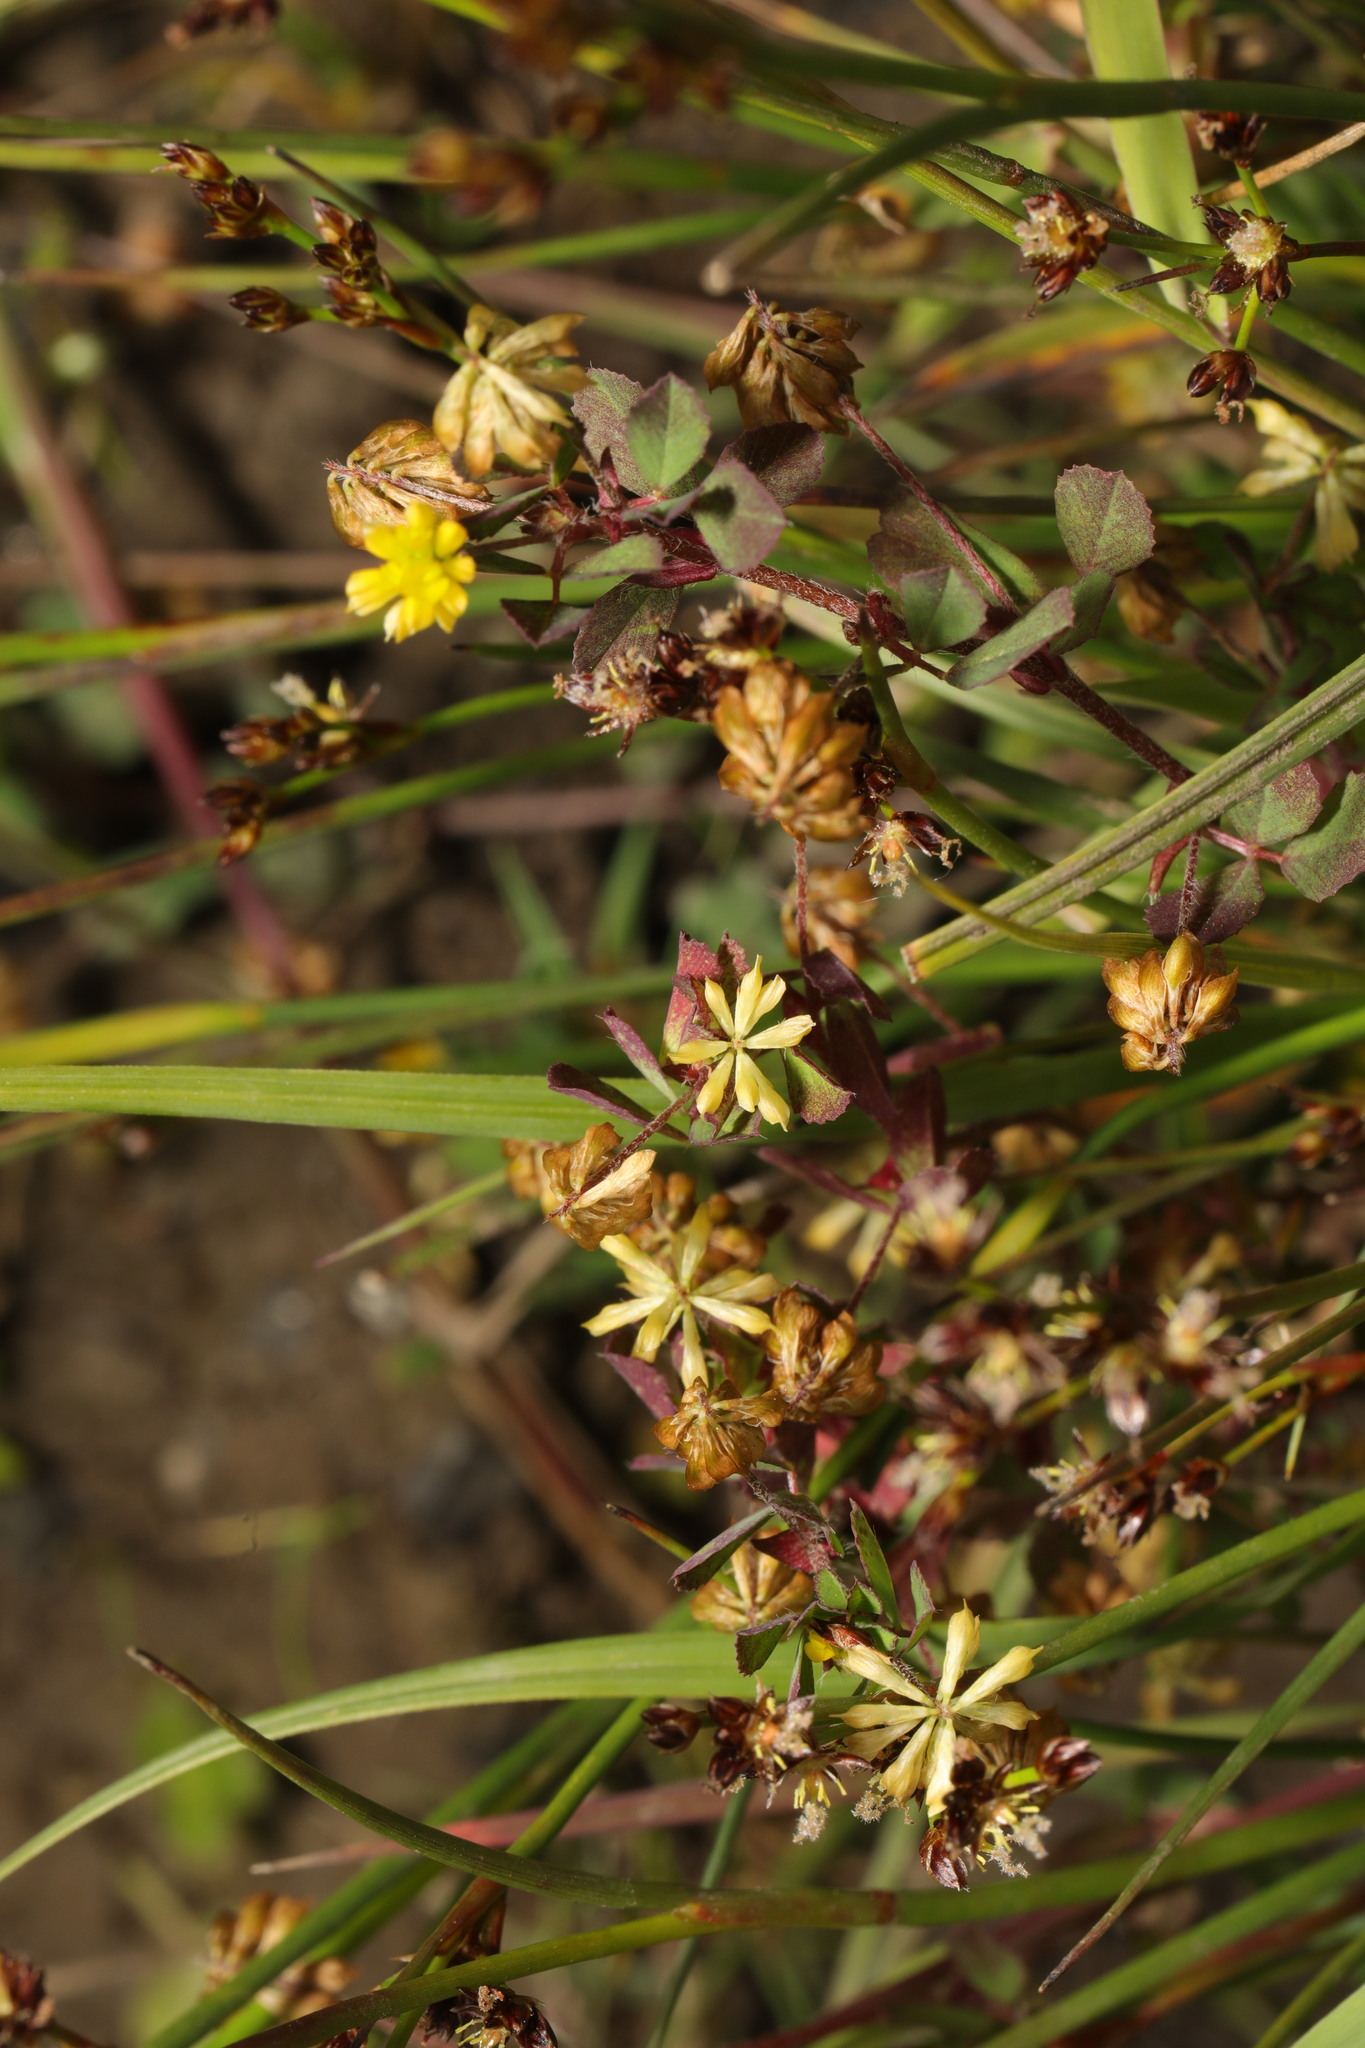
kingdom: Plantae
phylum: Tracheophyta
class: Magnoliopsida
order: Fabales
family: Fabaceae
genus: Trifolium
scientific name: Trifolium dubium
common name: Suckling clover
